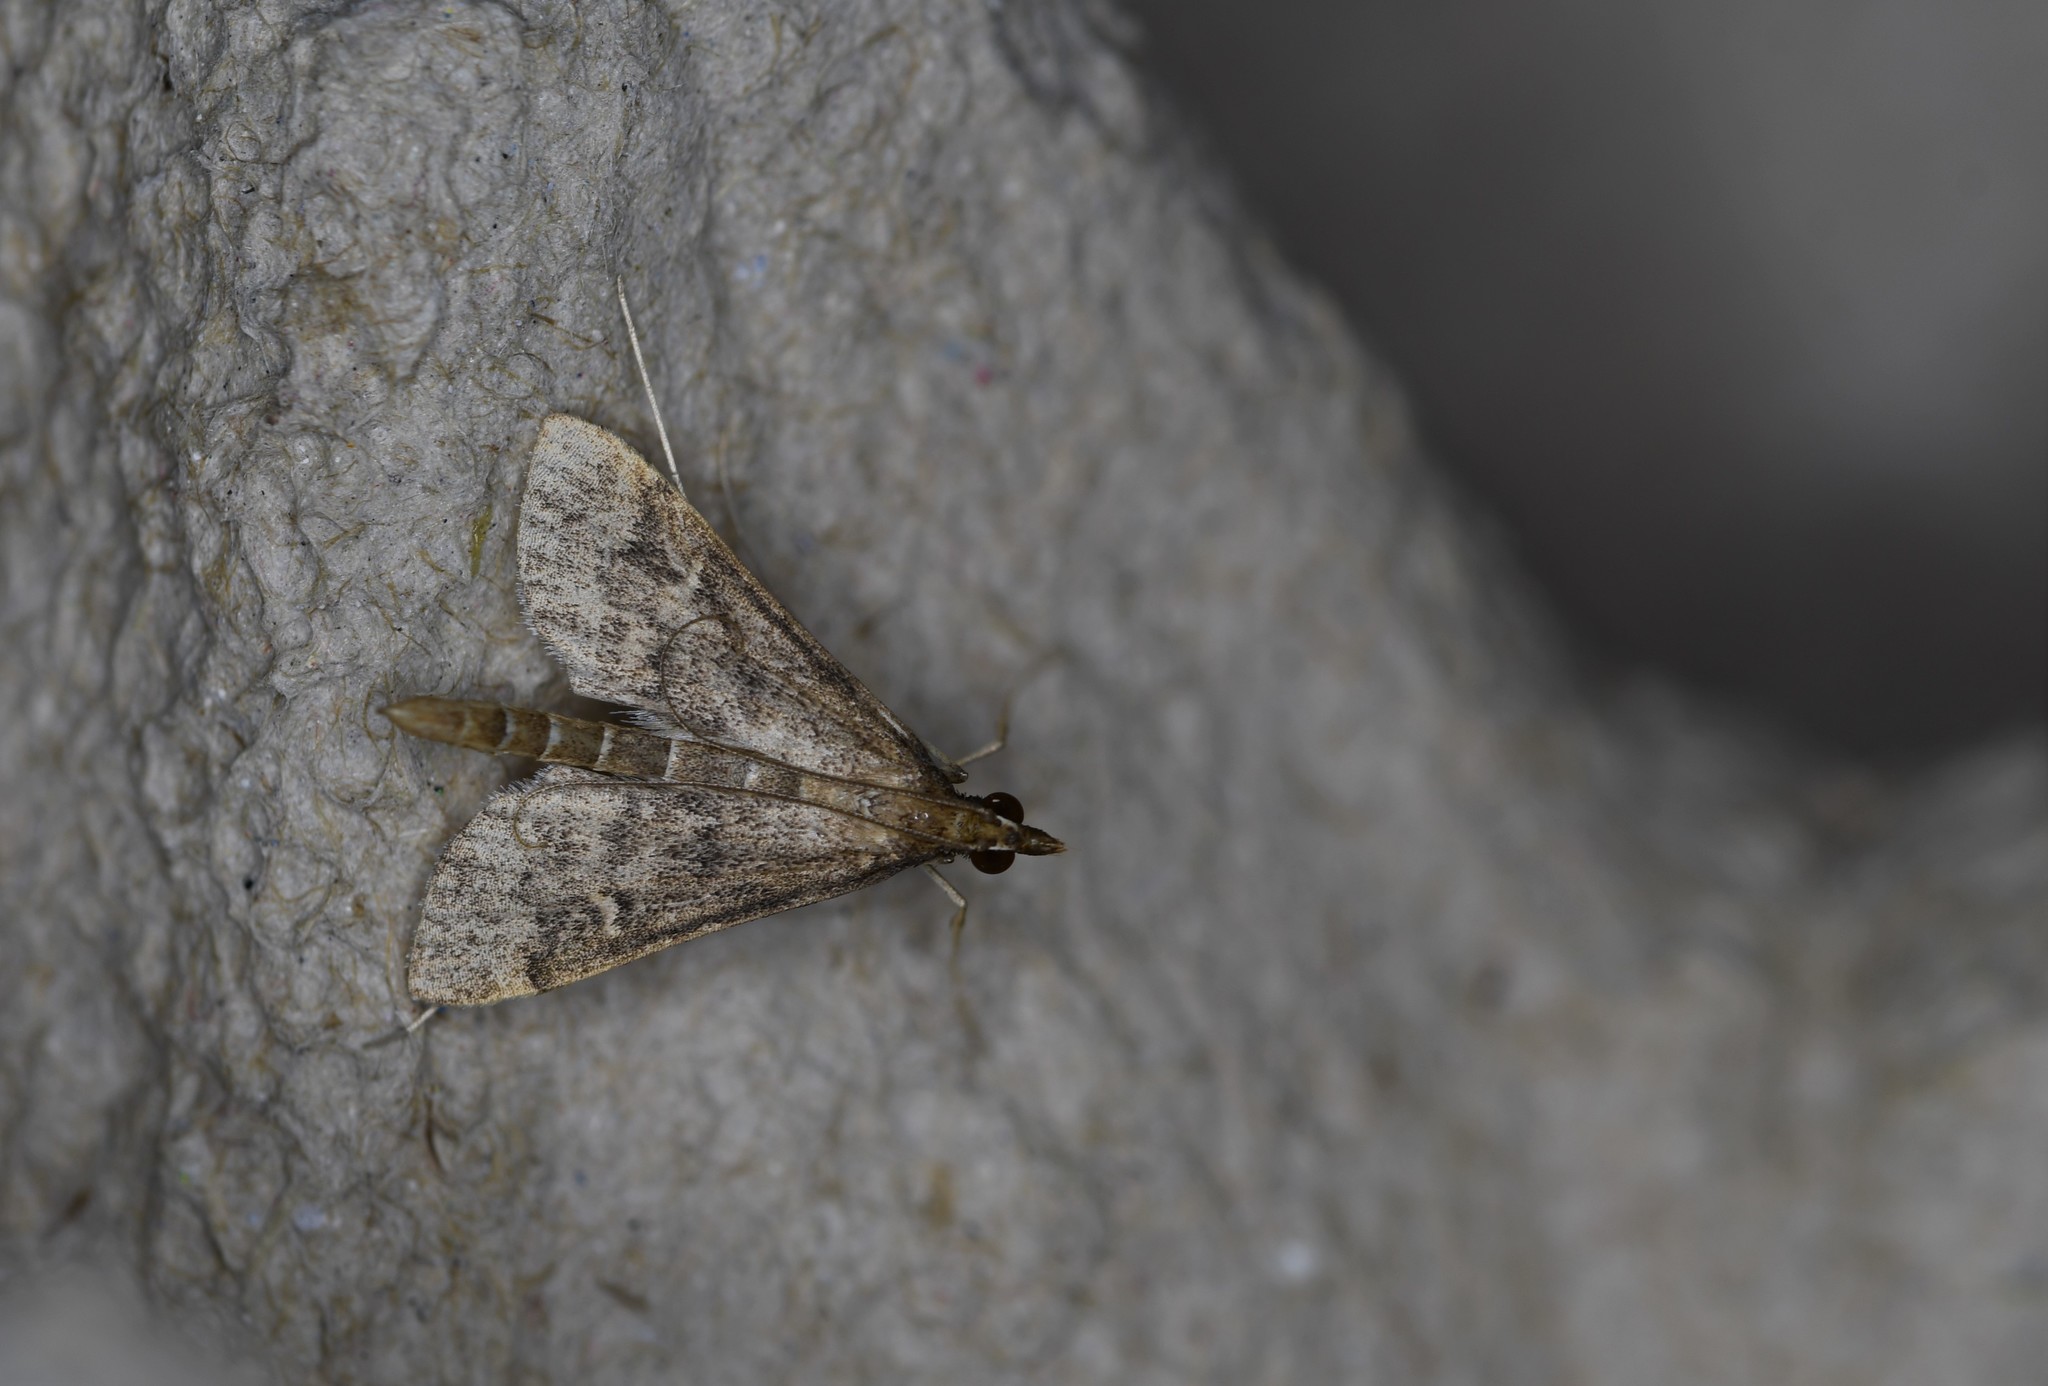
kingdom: Animalia
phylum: Arthropoda
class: Insecta
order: Lepidoptera
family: Crambidae
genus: Stenia
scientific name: Stenia Dolicharthria punctalis
